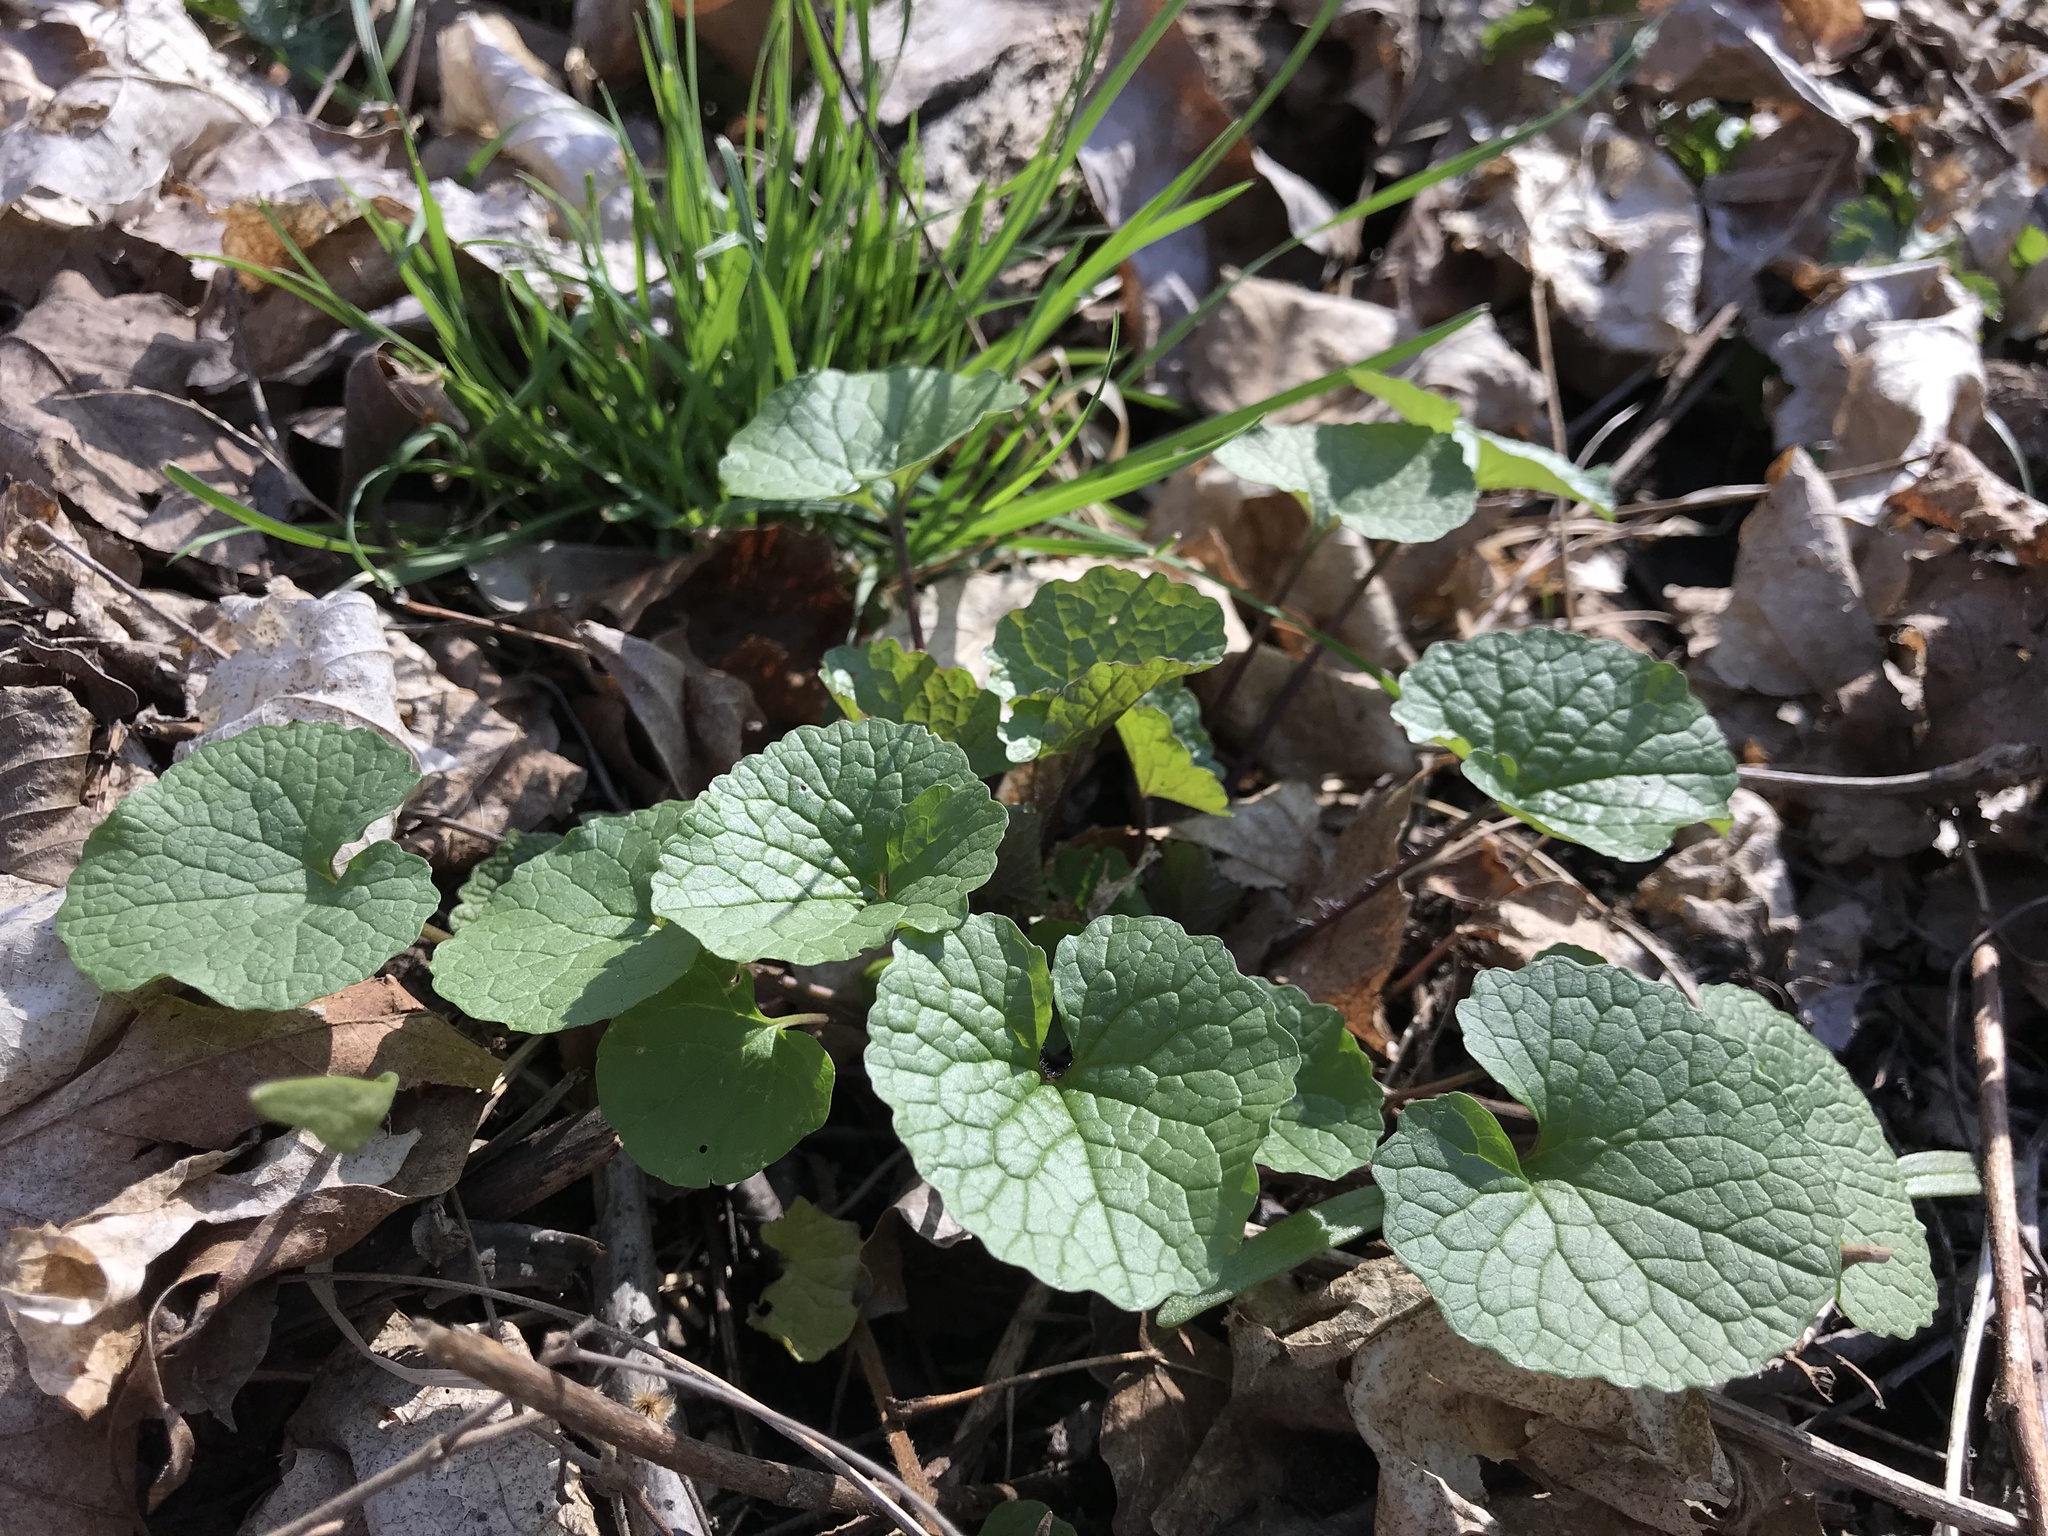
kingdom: Plantae
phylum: Tracheophyta
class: Magnoliopsida
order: Brassicales
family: Brassicaceae
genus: Alliaria
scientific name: Alliaria petiolata
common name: Garlic mustard
